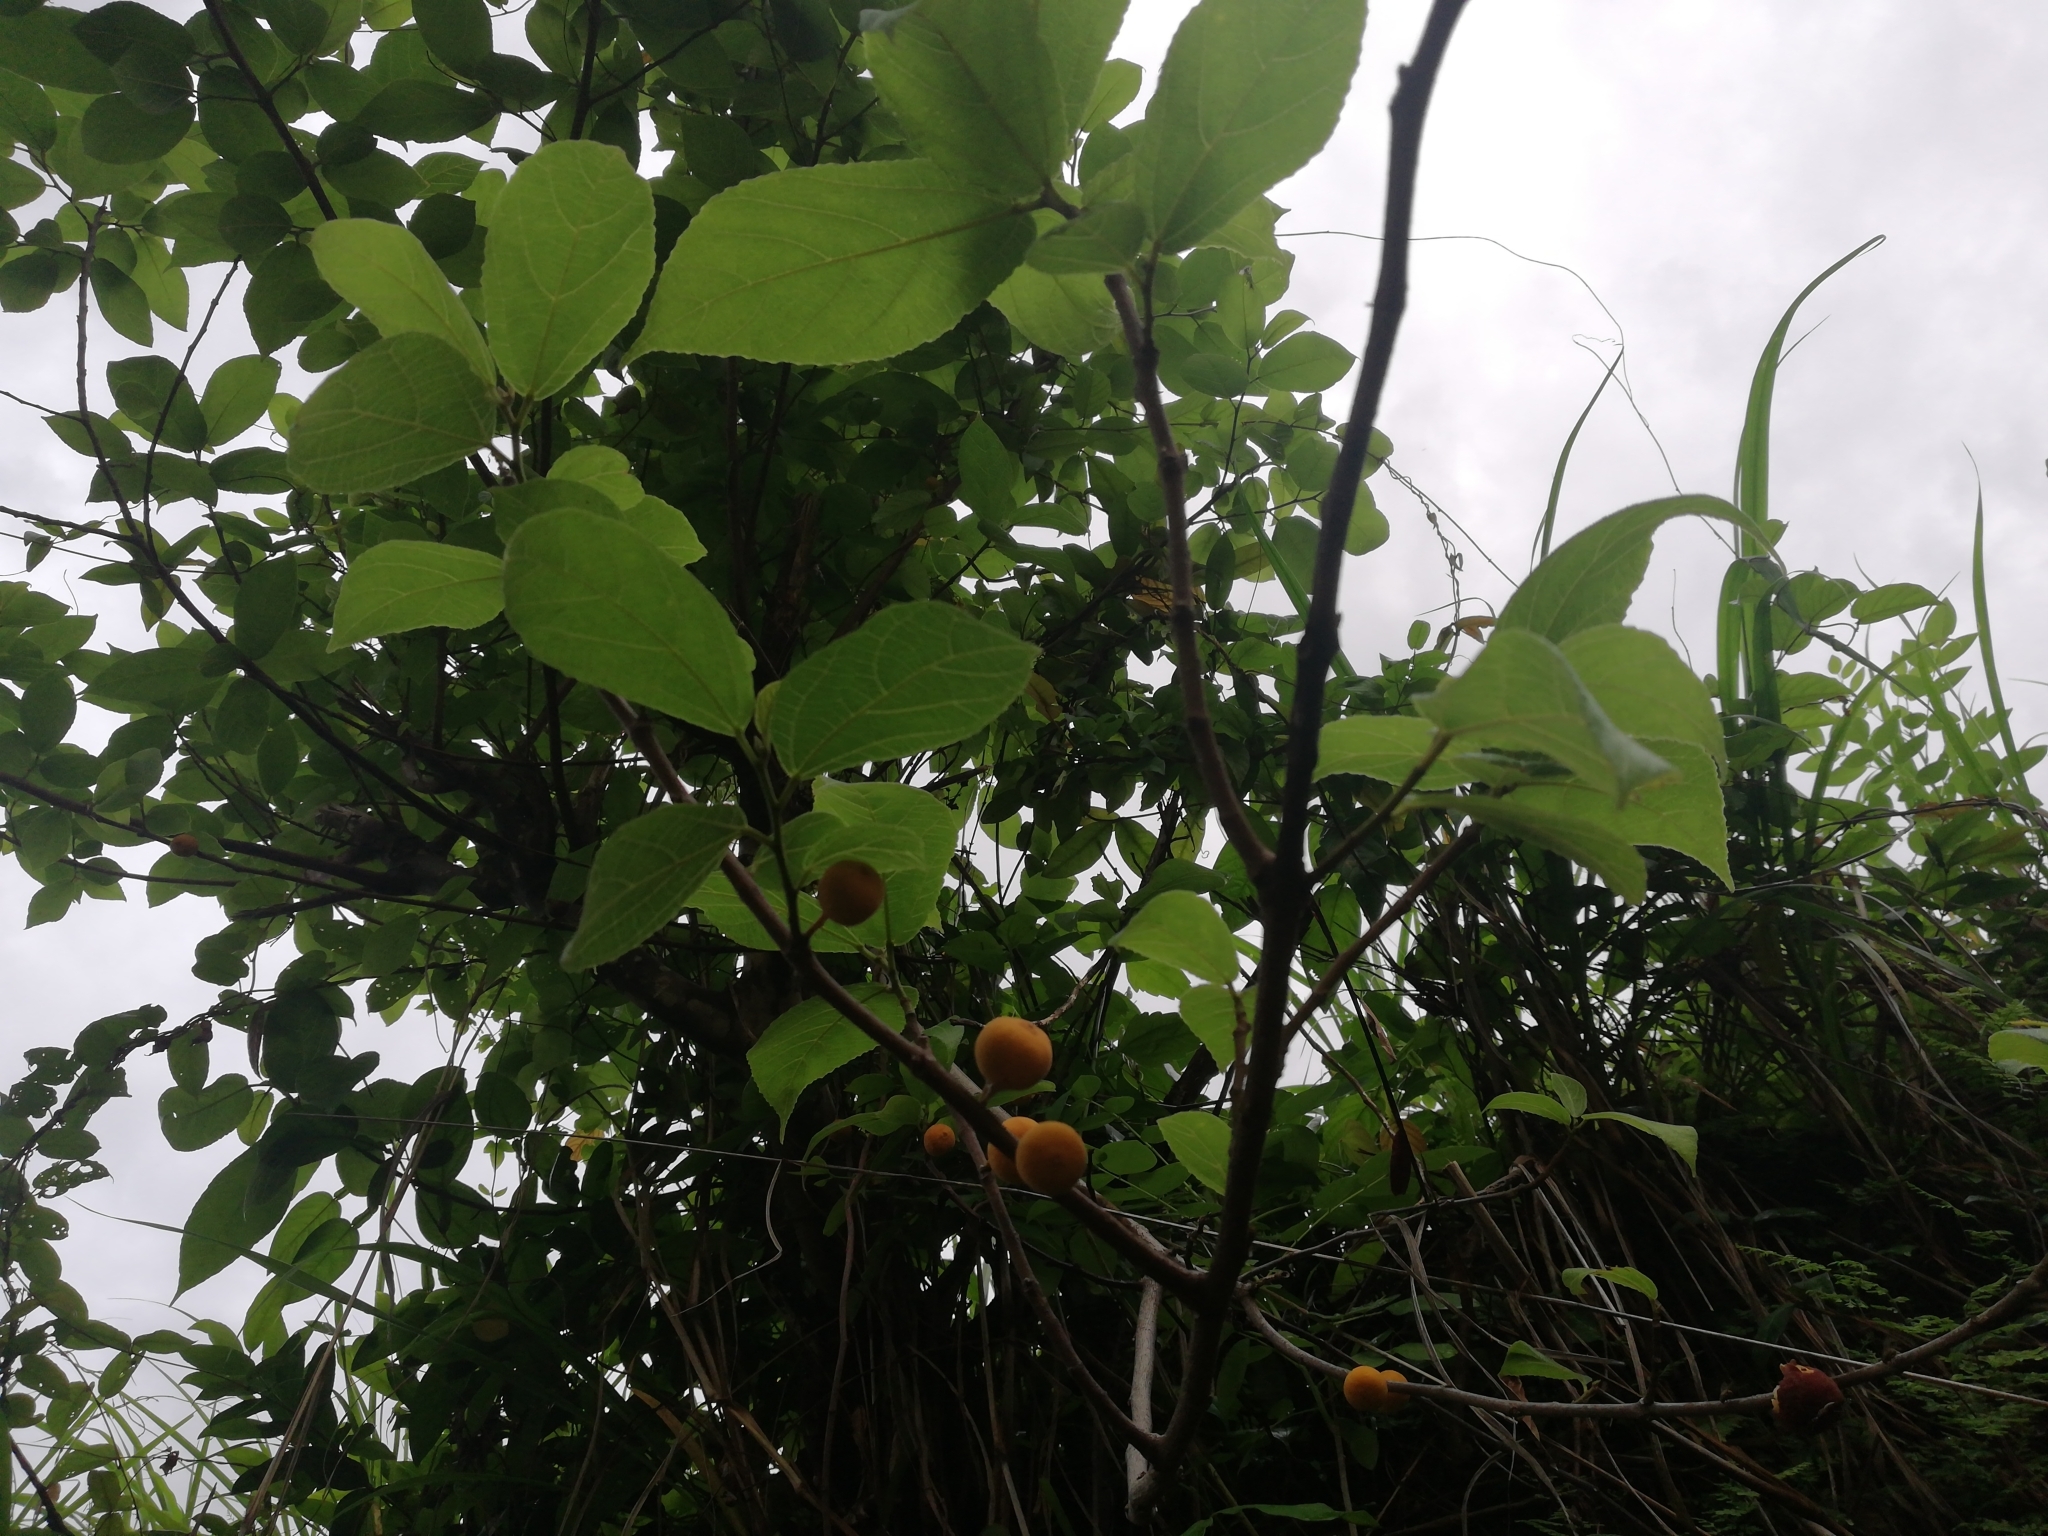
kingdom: Plantae
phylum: Tracheophyta
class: Magnoliopsida
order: Rosales
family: Moraceae
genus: Ficus
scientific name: Ficus exasperata
